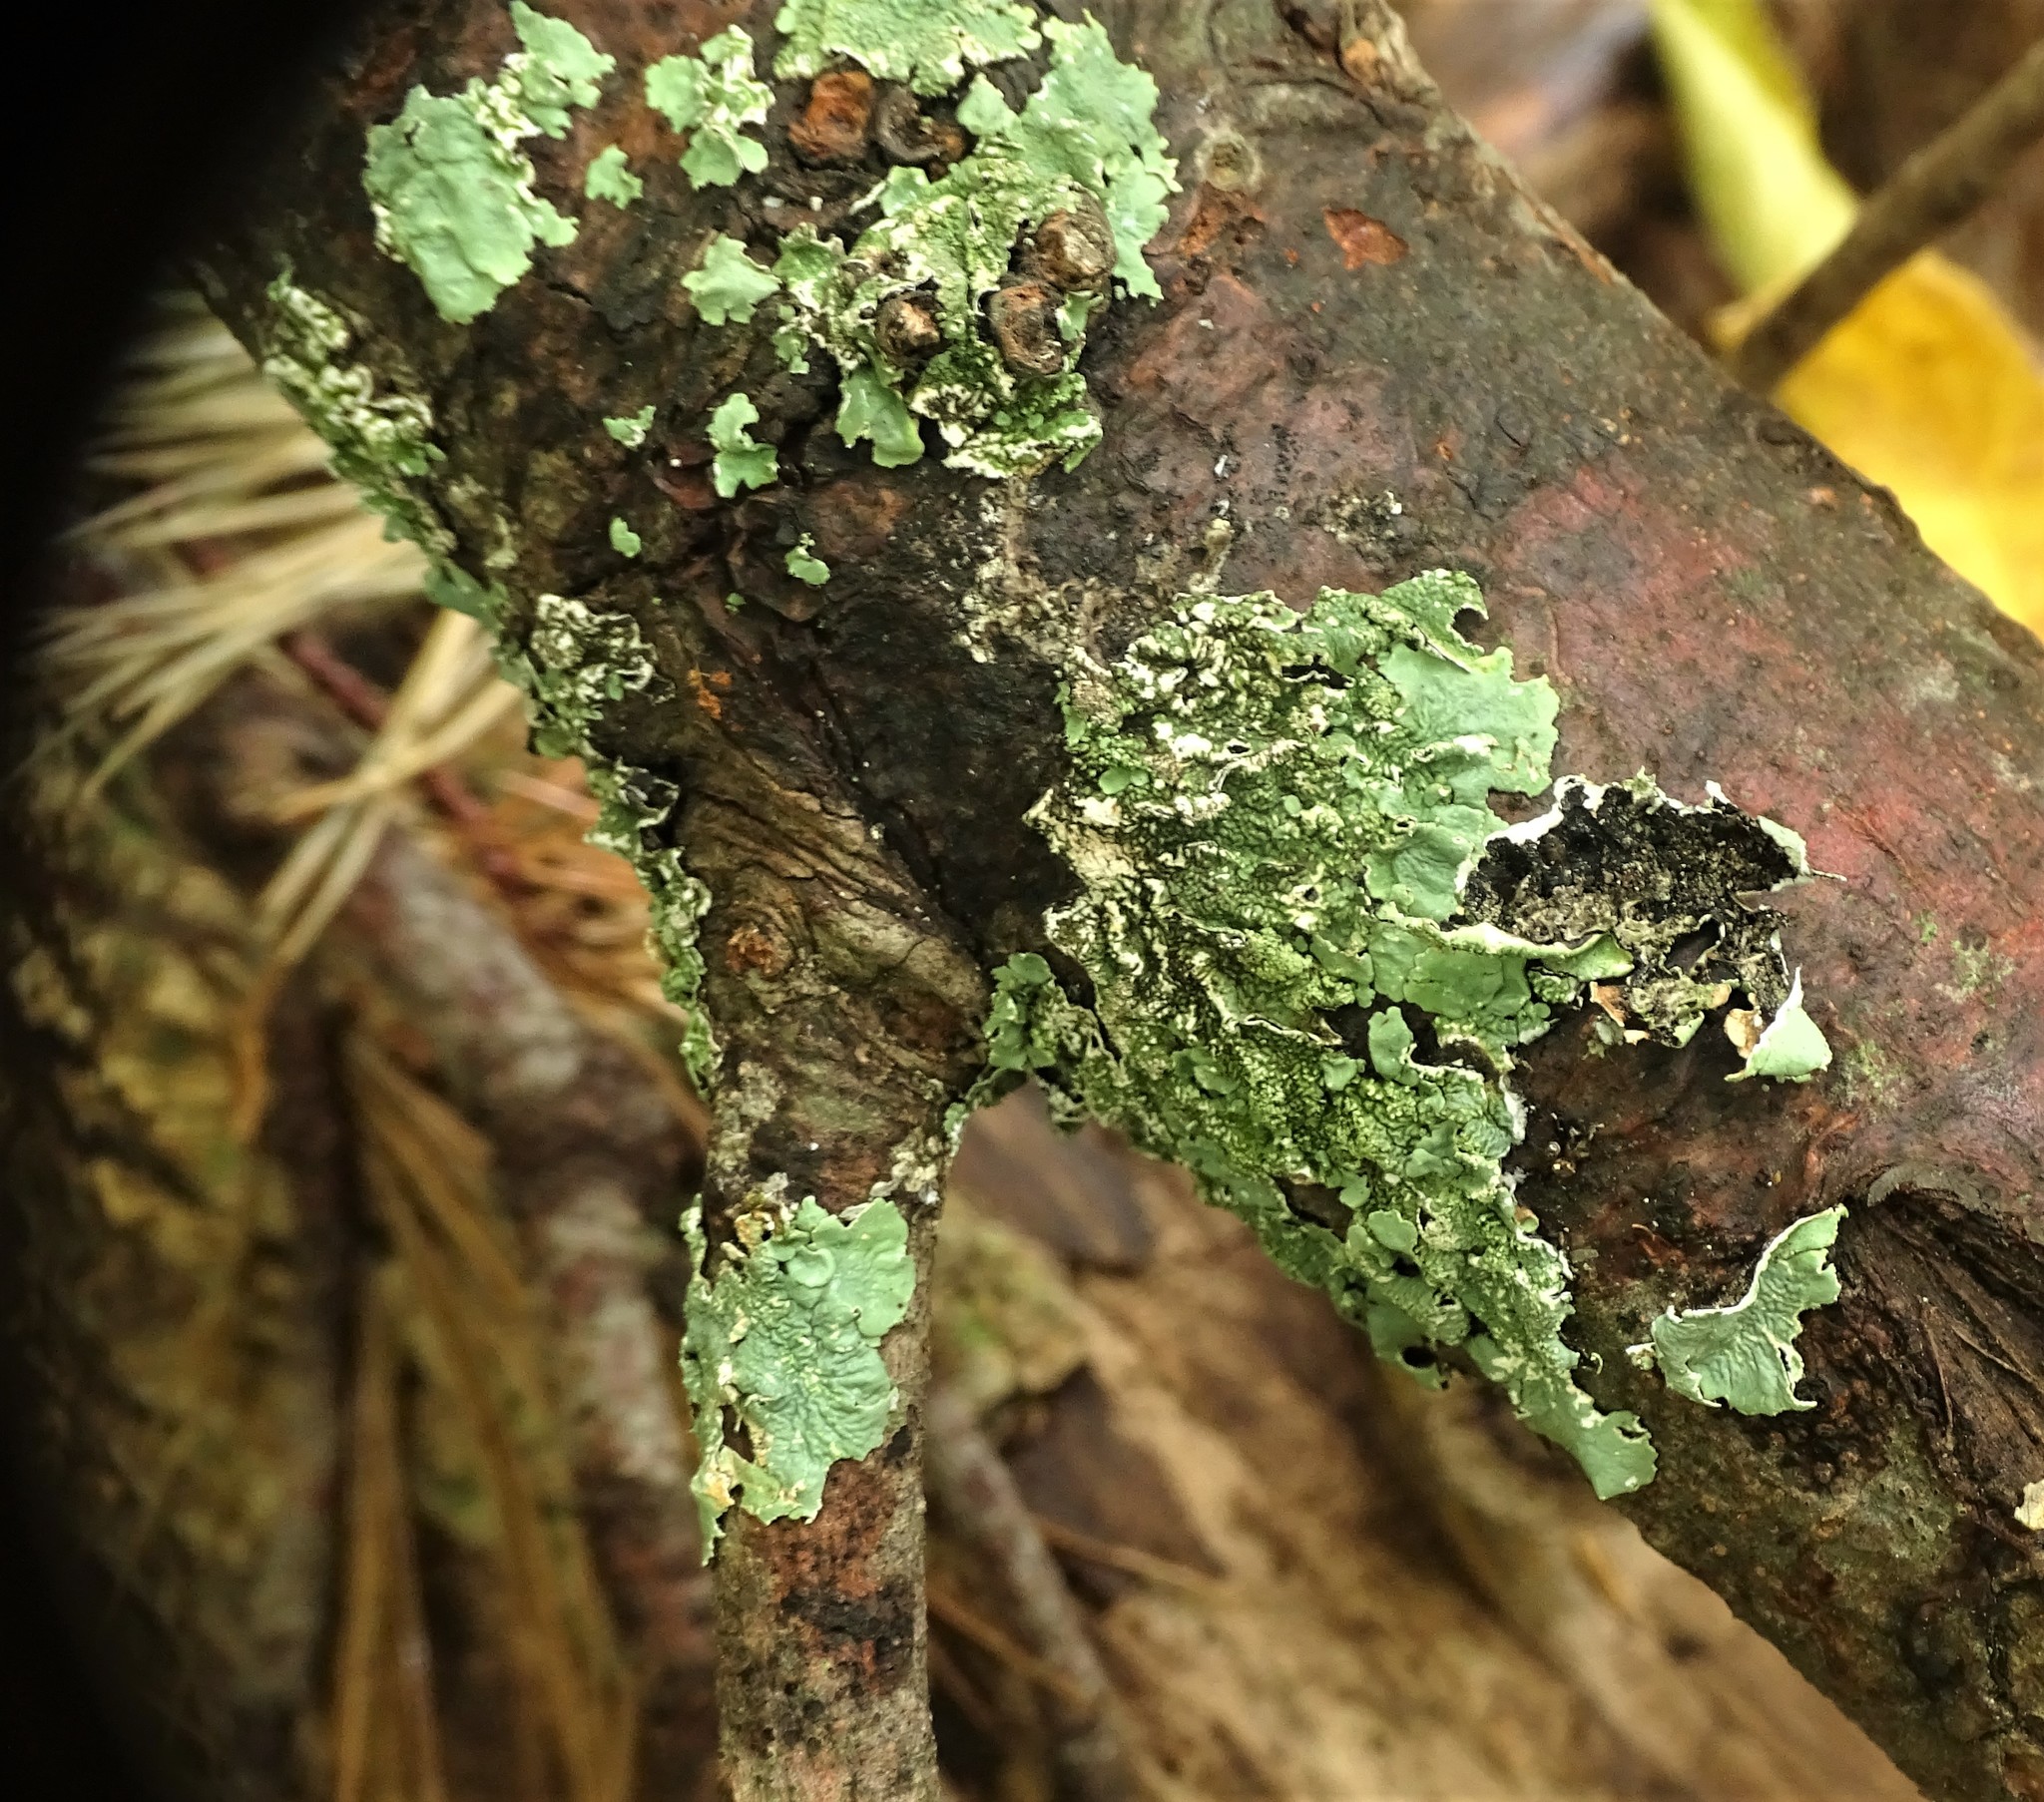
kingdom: Fungi
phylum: Ascomycota
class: Lecanoromycetes
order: Lecanorales
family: Parmeliaceae
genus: Flavoparmelia
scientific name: Flavoparmelia caperata
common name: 40-mile per hour lichen
